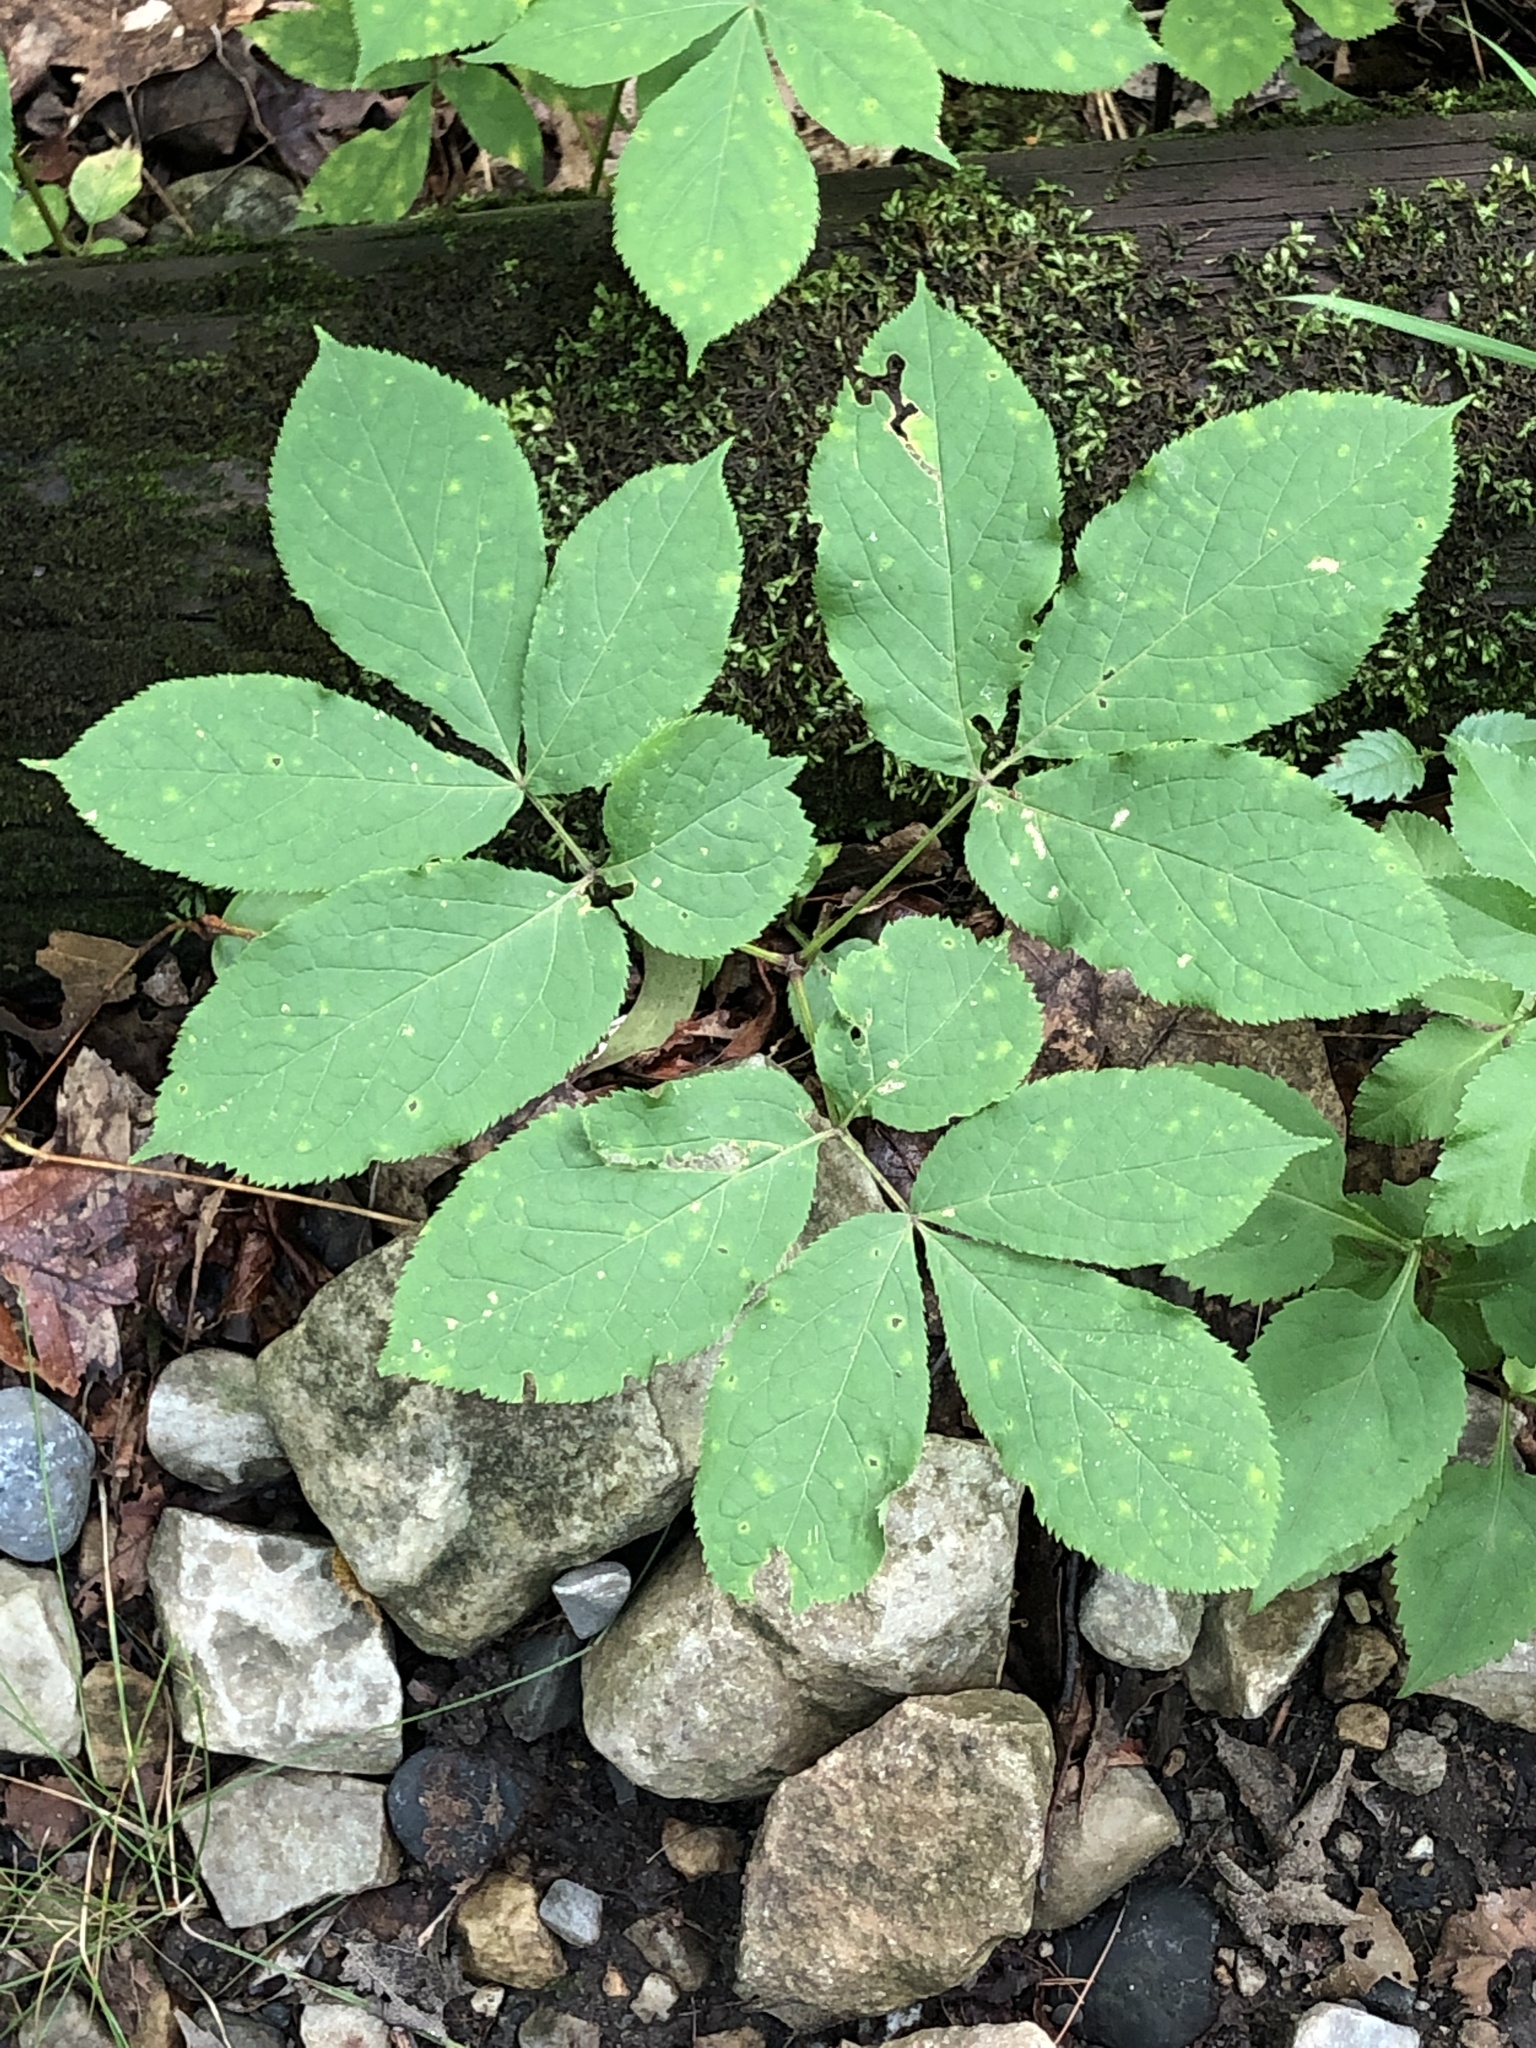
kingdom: Plantae
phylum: Tracheophyta
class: Magnoliopsida
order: Apiales
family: Araliaceae
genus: Aralia
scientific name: Aralia nudicaulis
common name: Wild sarsaparilla
